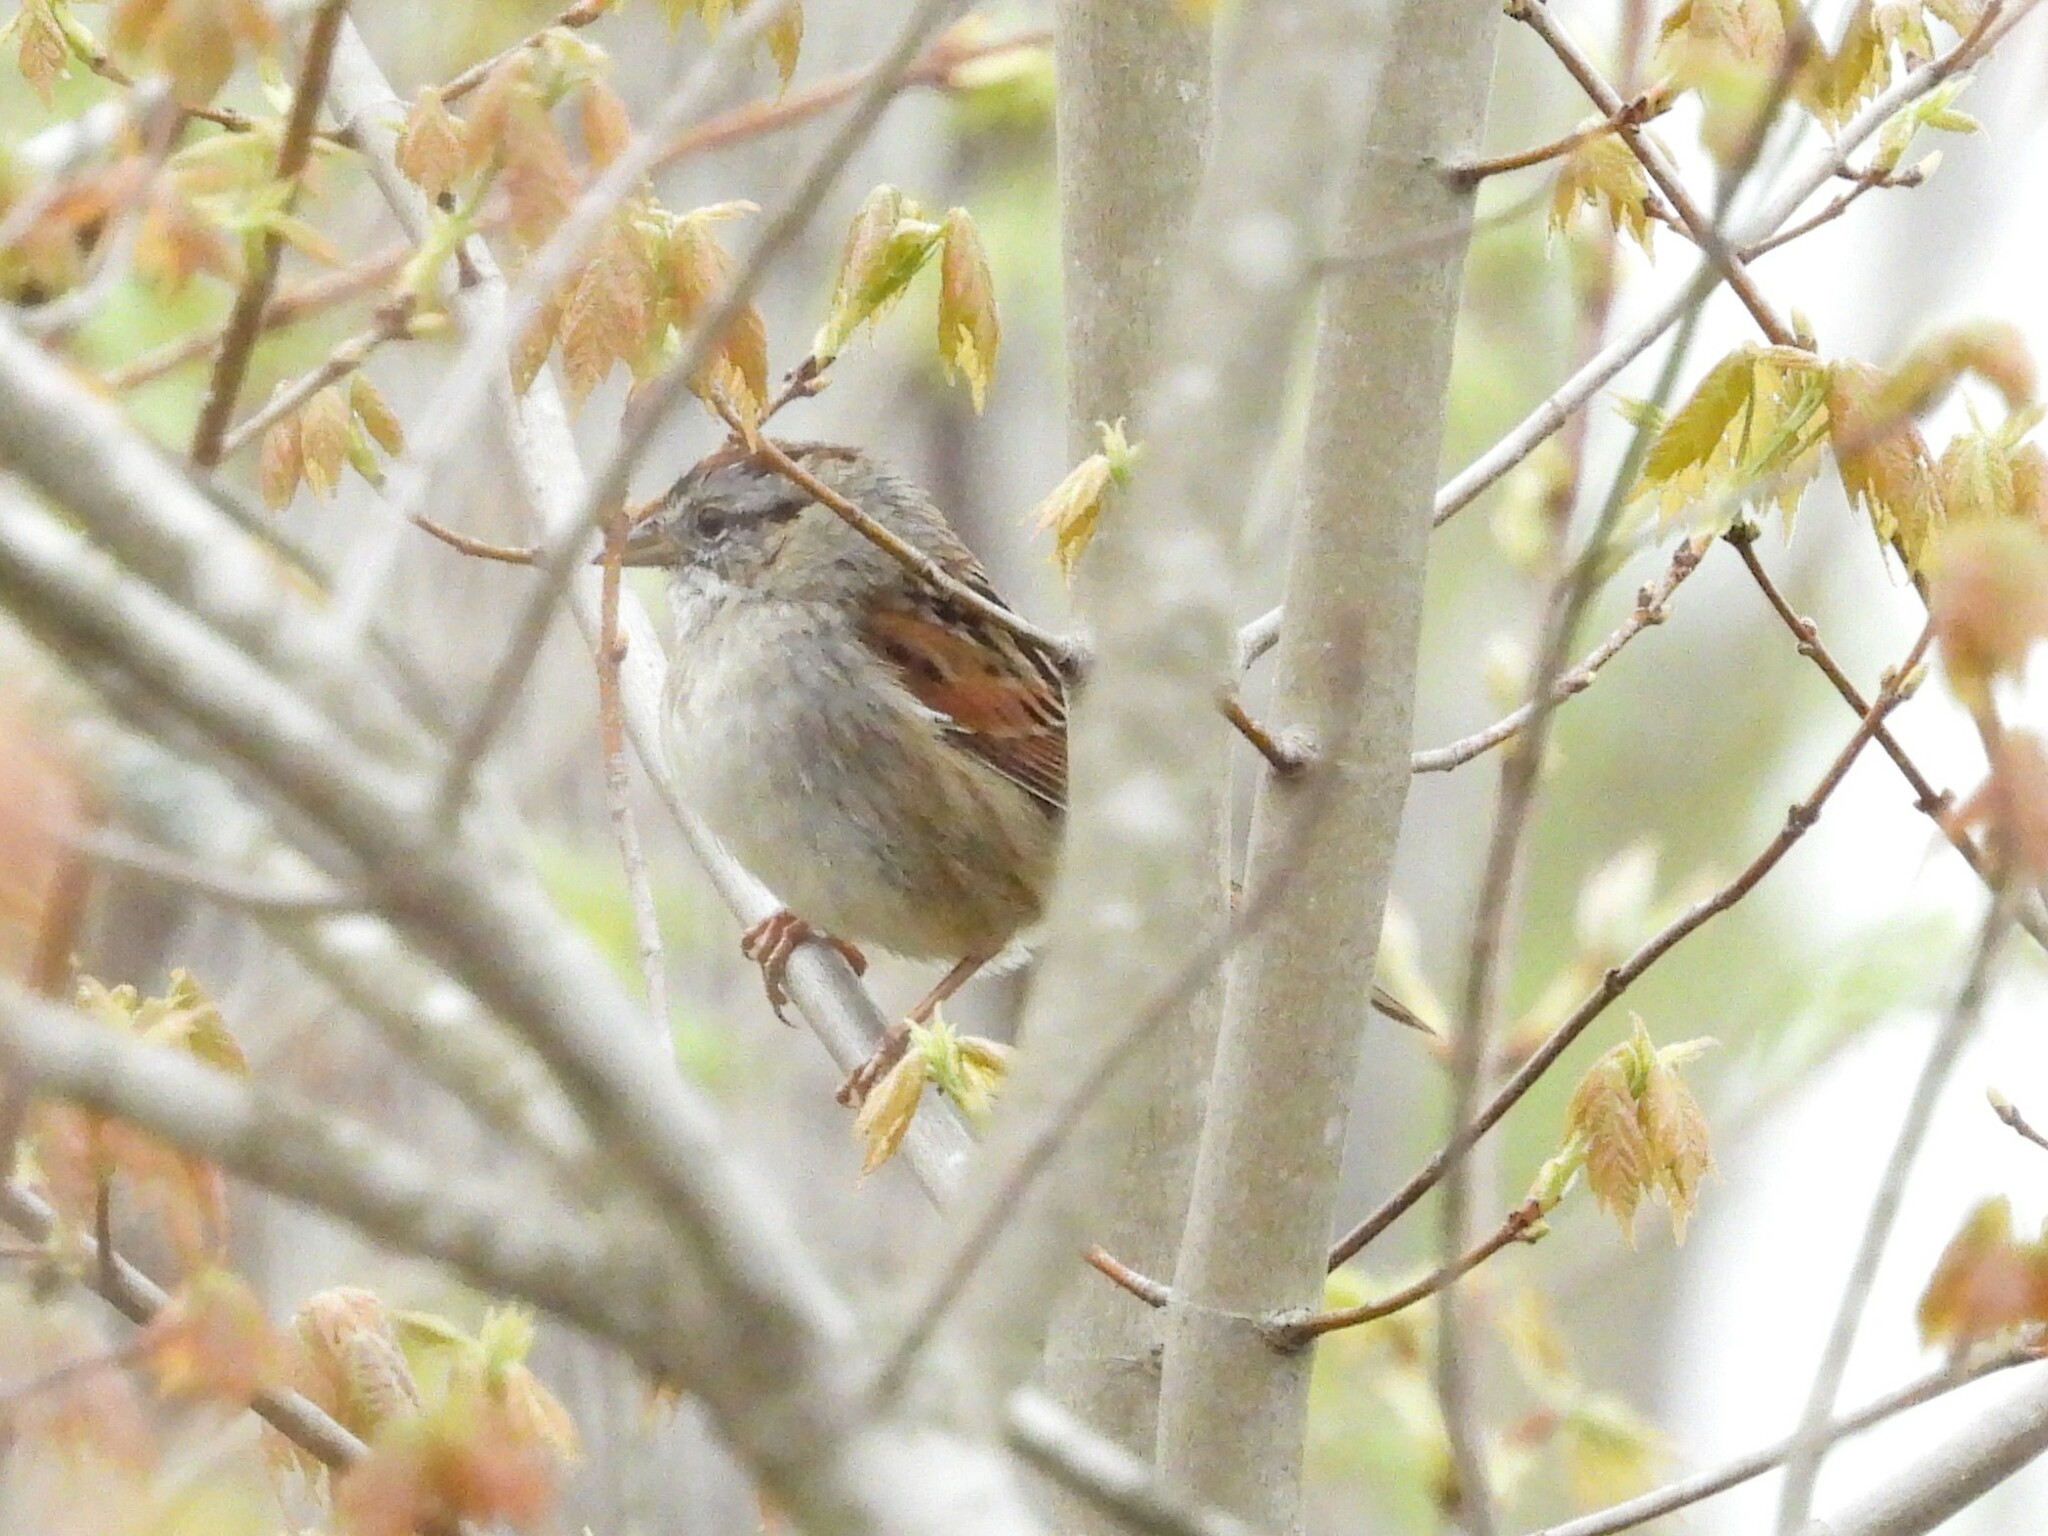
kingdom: Animalia
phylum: Chordata
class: Aves
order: Passeriformes
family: Passerellidae
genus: Melospiza
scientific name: Melospiza georgiana
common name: Swamp sparrow
